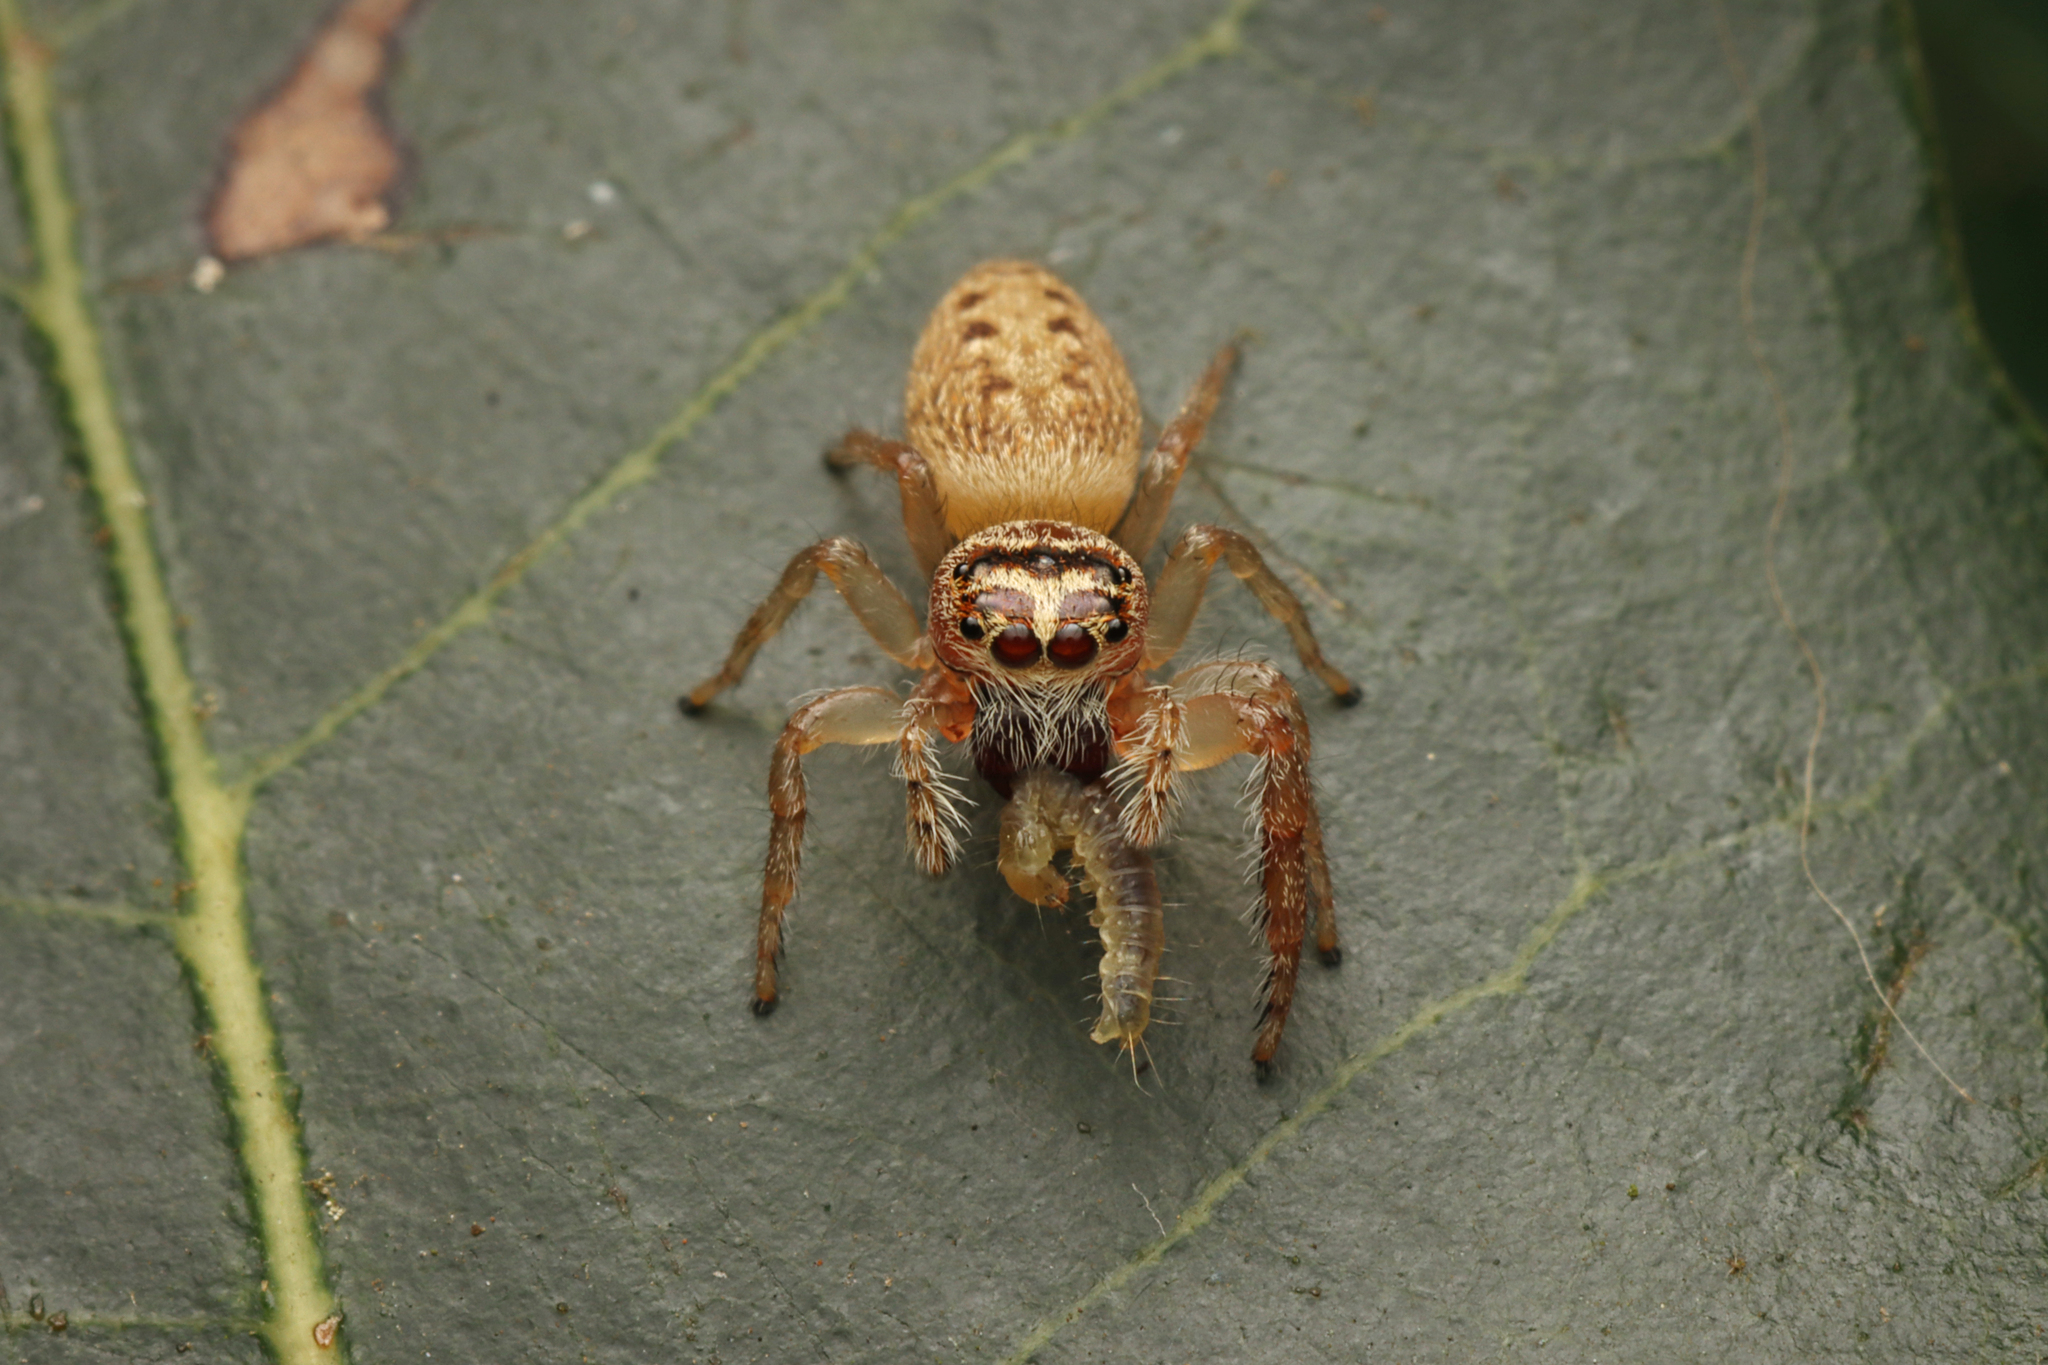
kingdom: Animalia
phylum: Arthropoda
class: Arachnida
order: Araneae
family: Salticidae
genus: Opisthoncus
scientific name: Opisthoncus nigrofemoratus
